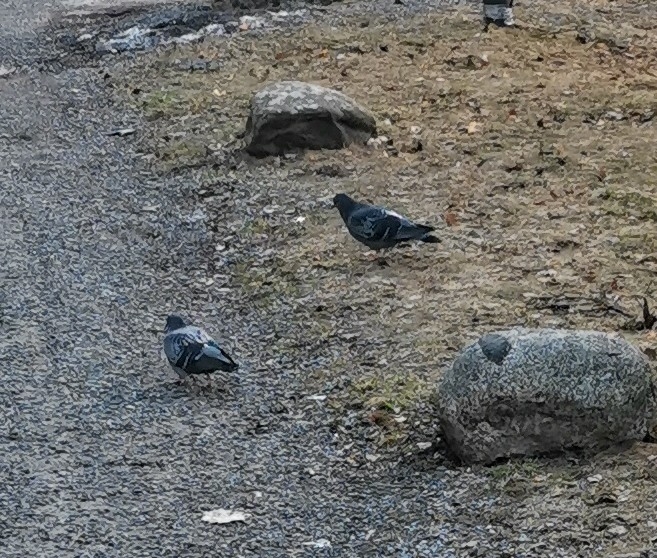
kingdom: Animalia
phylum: Chordata
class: Aves
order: Columbiformes
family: Columbidae
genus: Columba
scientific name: Columba livia
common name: Rock pigeon
